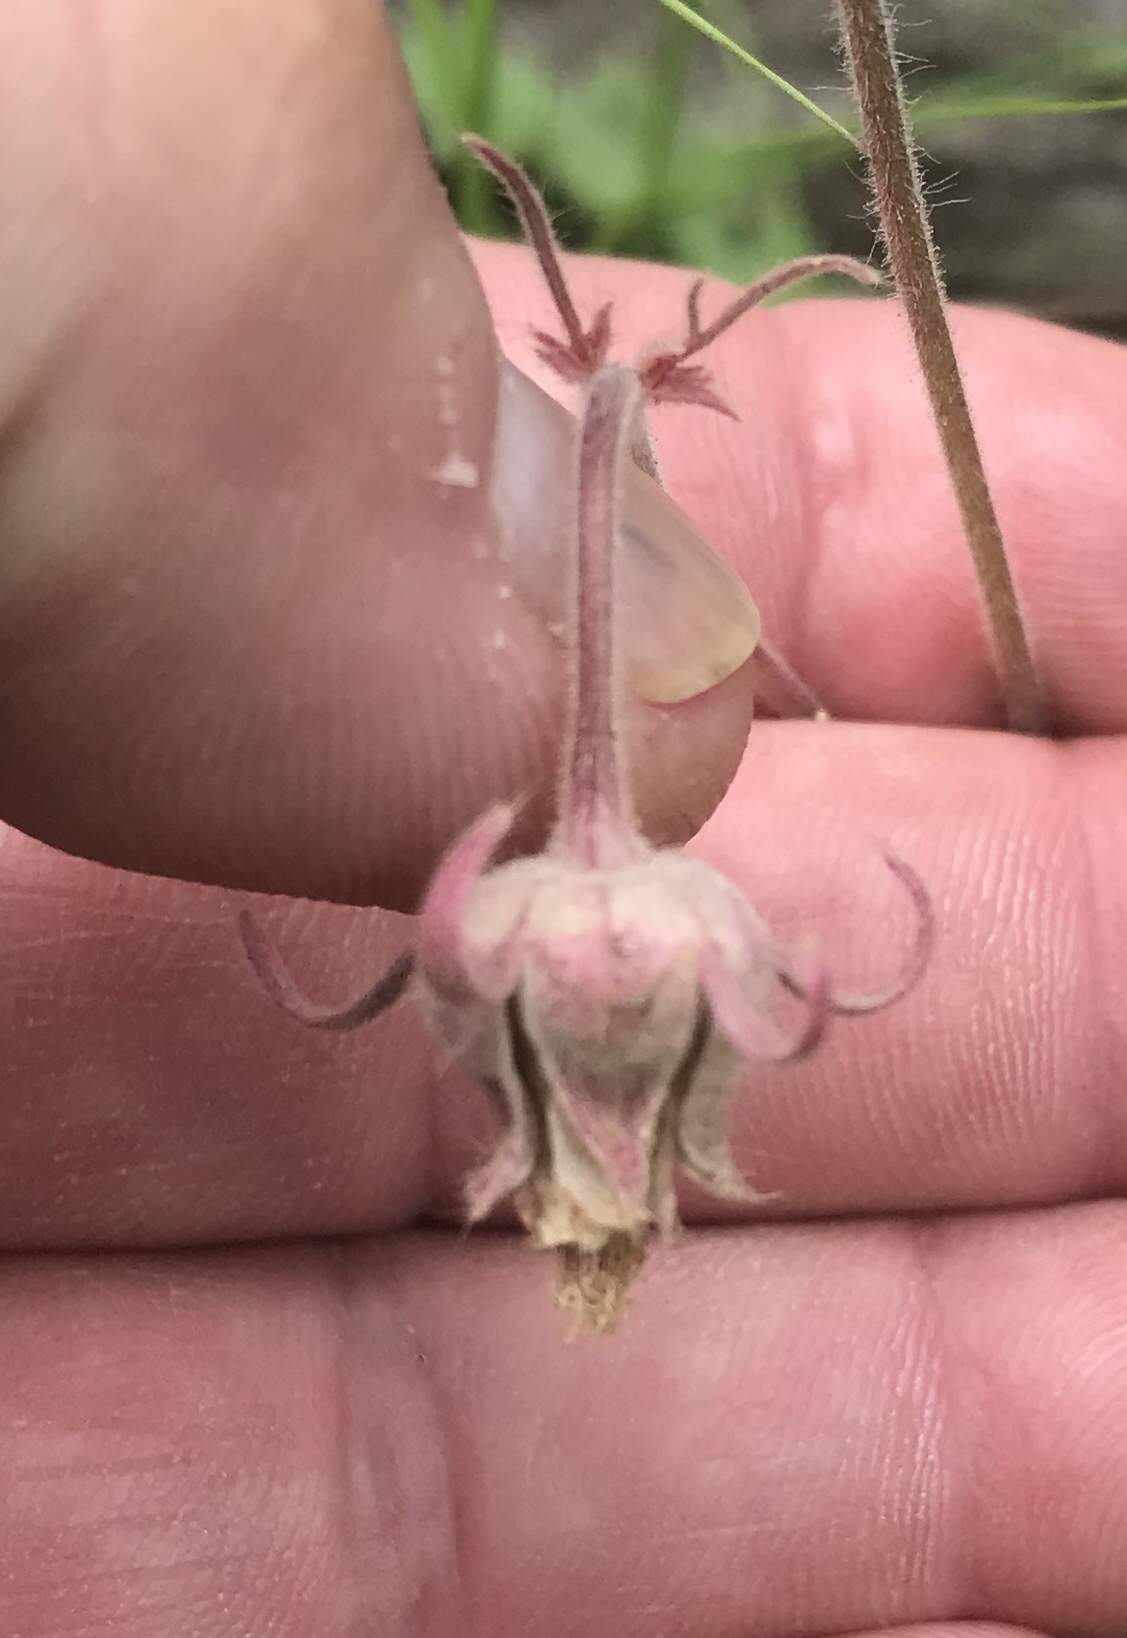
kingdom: Plantae
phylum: Tracheophyta
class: Magnoliopsida
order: Rosales
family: Rosaceae
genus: Geum
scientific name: Geum triflorum
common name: Old man's whiskers
